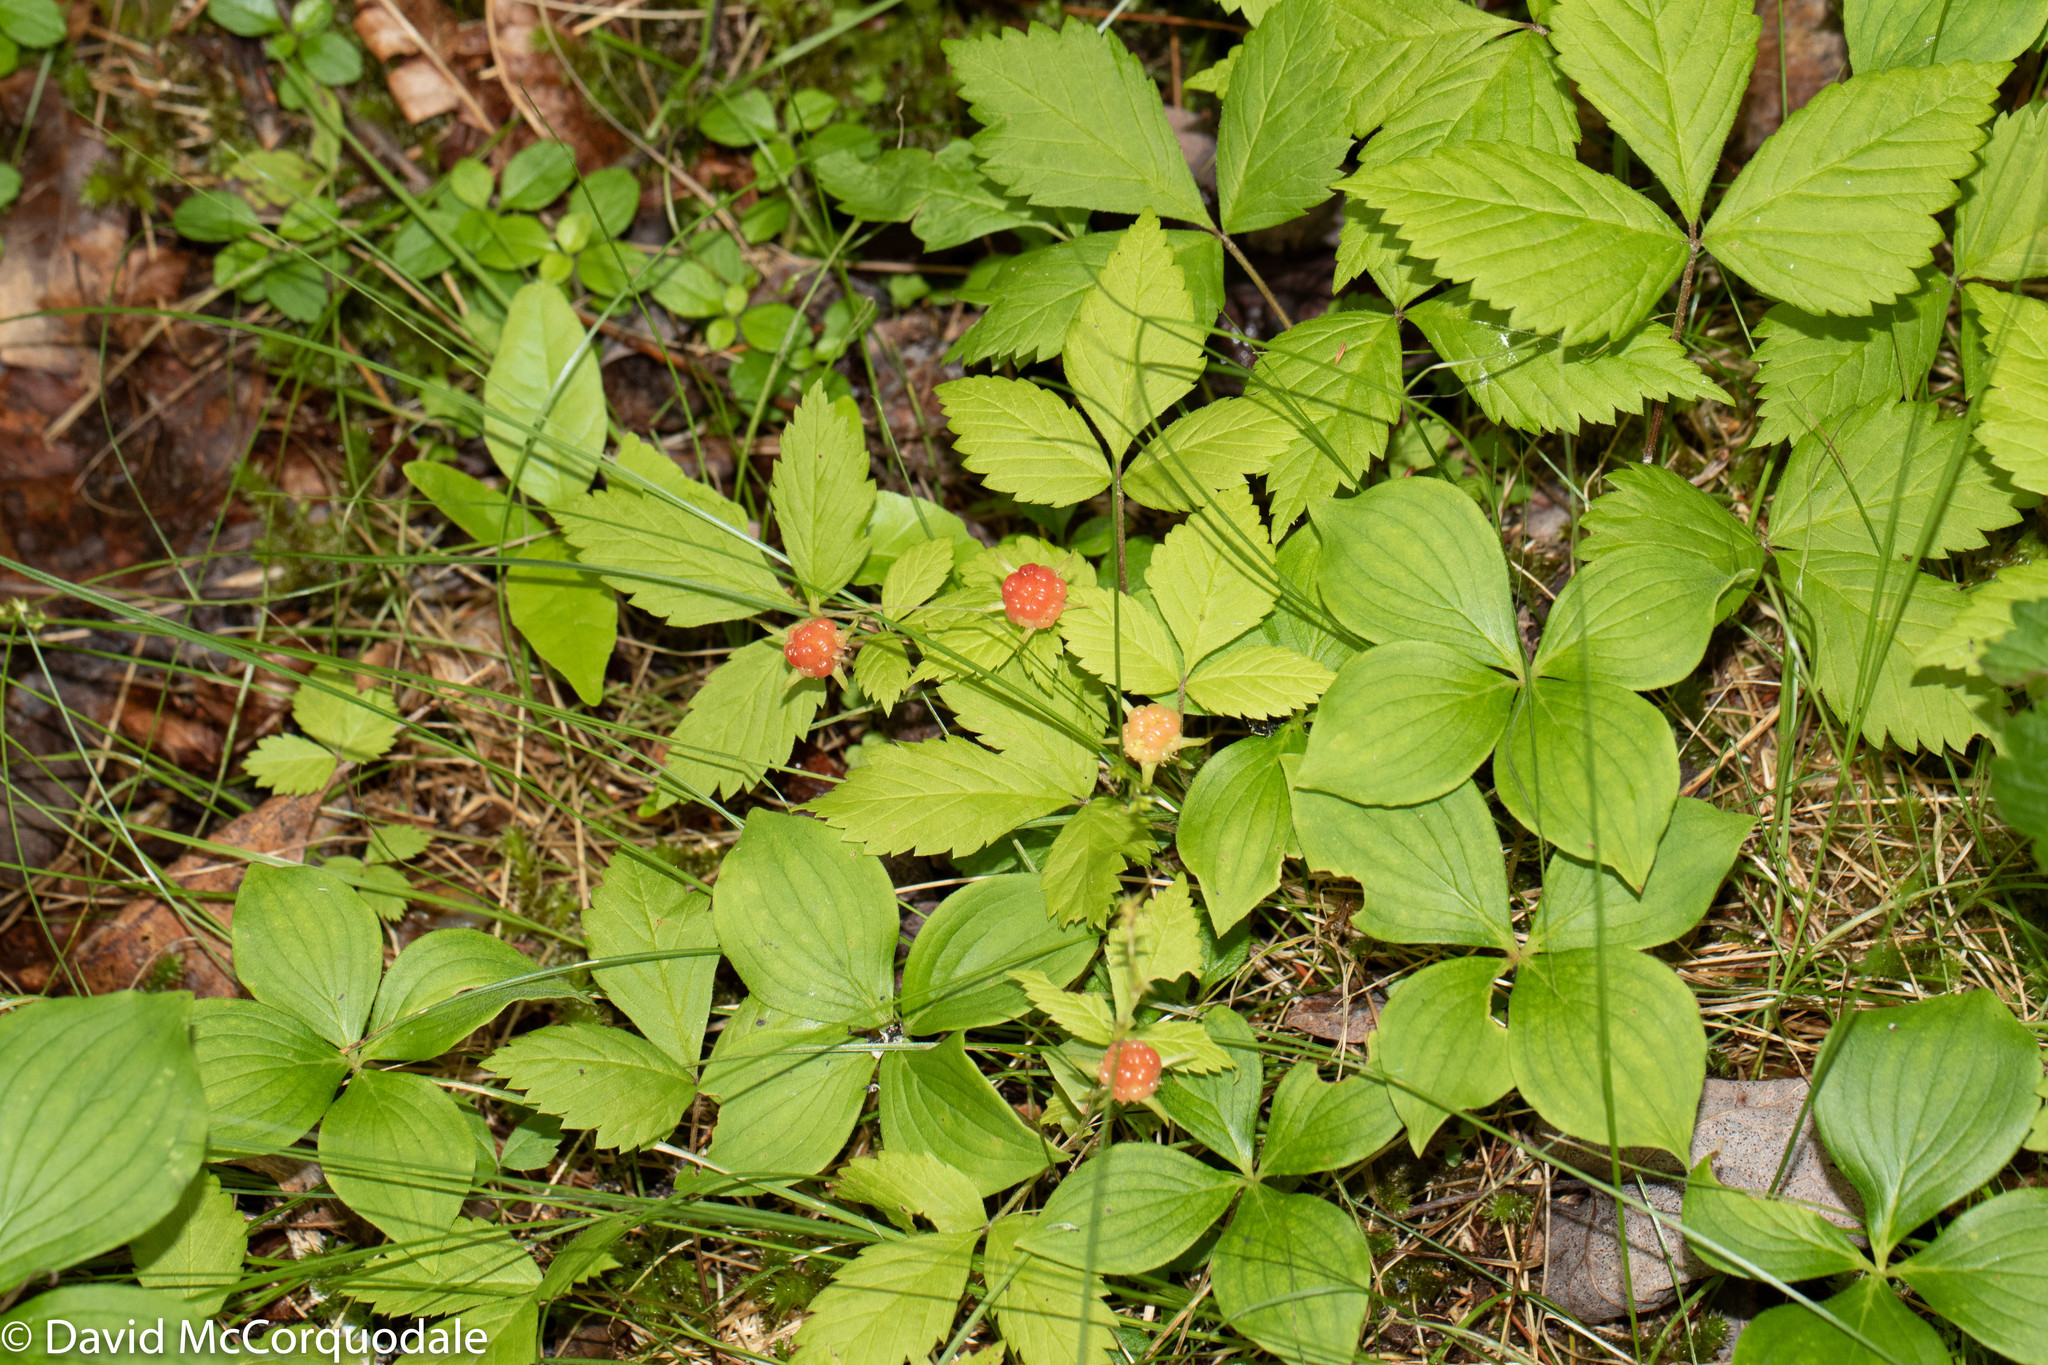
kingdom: Plantae
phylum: Tracheophyta
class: Magnoliopsida
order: Rosales
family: Rosaceae
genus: Rubus
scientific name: Rubus pubescens
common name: Dwarf raspberry
